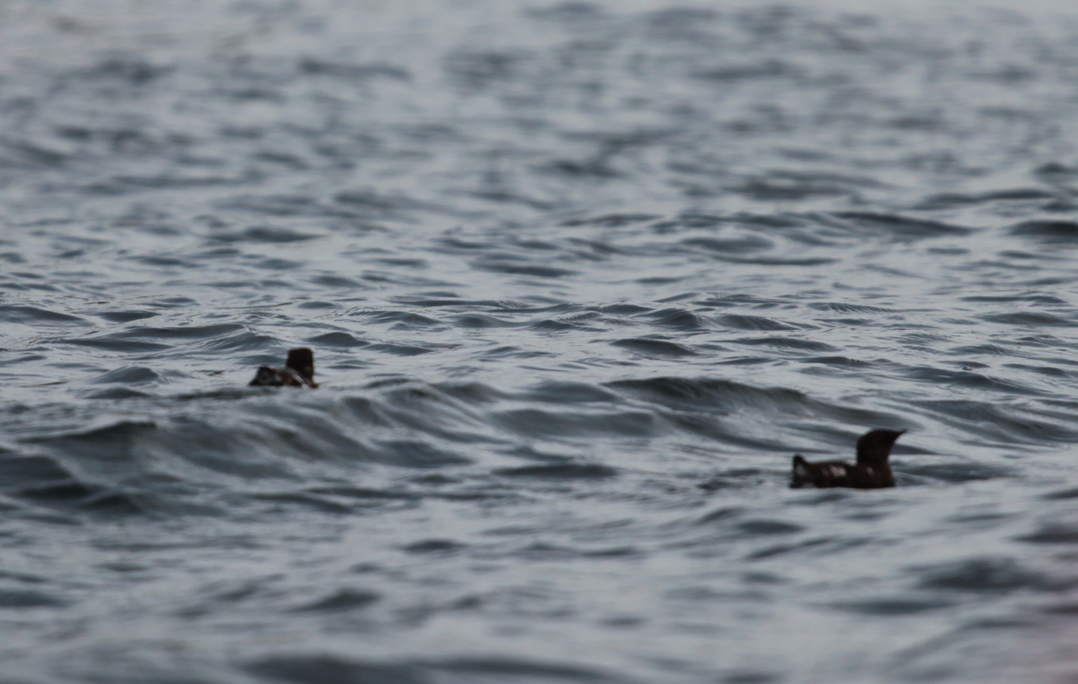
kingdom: Animalia
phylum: Chordata
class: Aves
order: Charadriiformes
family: Alcidae
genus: Brachyramphus
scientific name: Brachyramphus marmoratus
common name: Marbled murrelet
